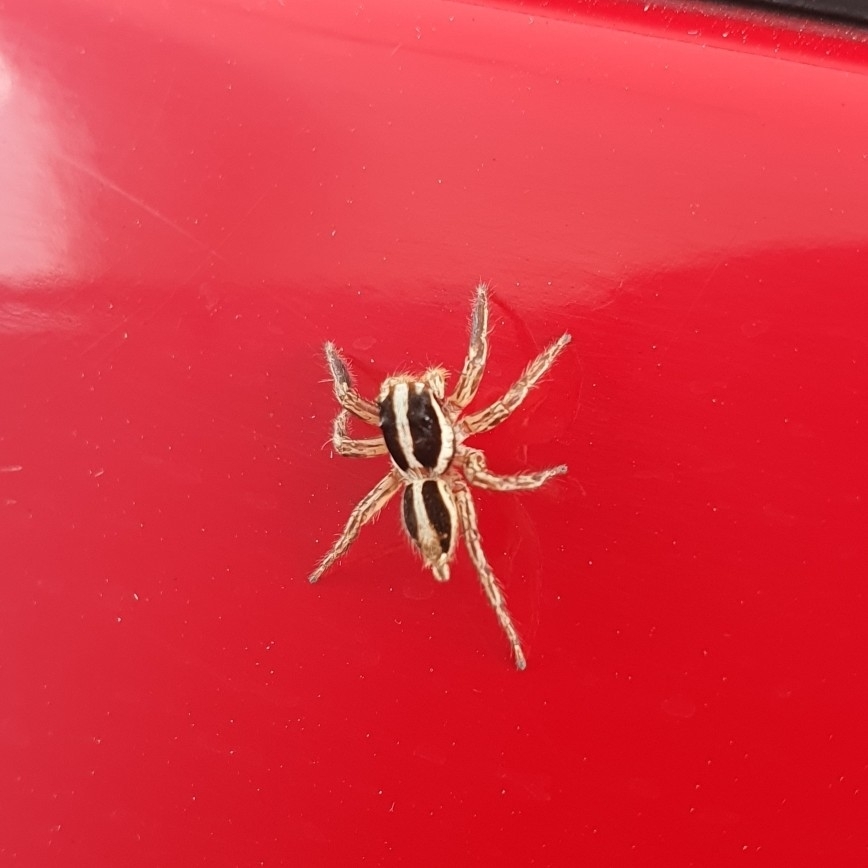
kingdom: Animalia
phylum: Arthropoda
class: Arachnida
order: Araneae
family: Salticidae
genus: Plexippus
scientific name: Plexippus paykulli
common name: Pantropical jumper
